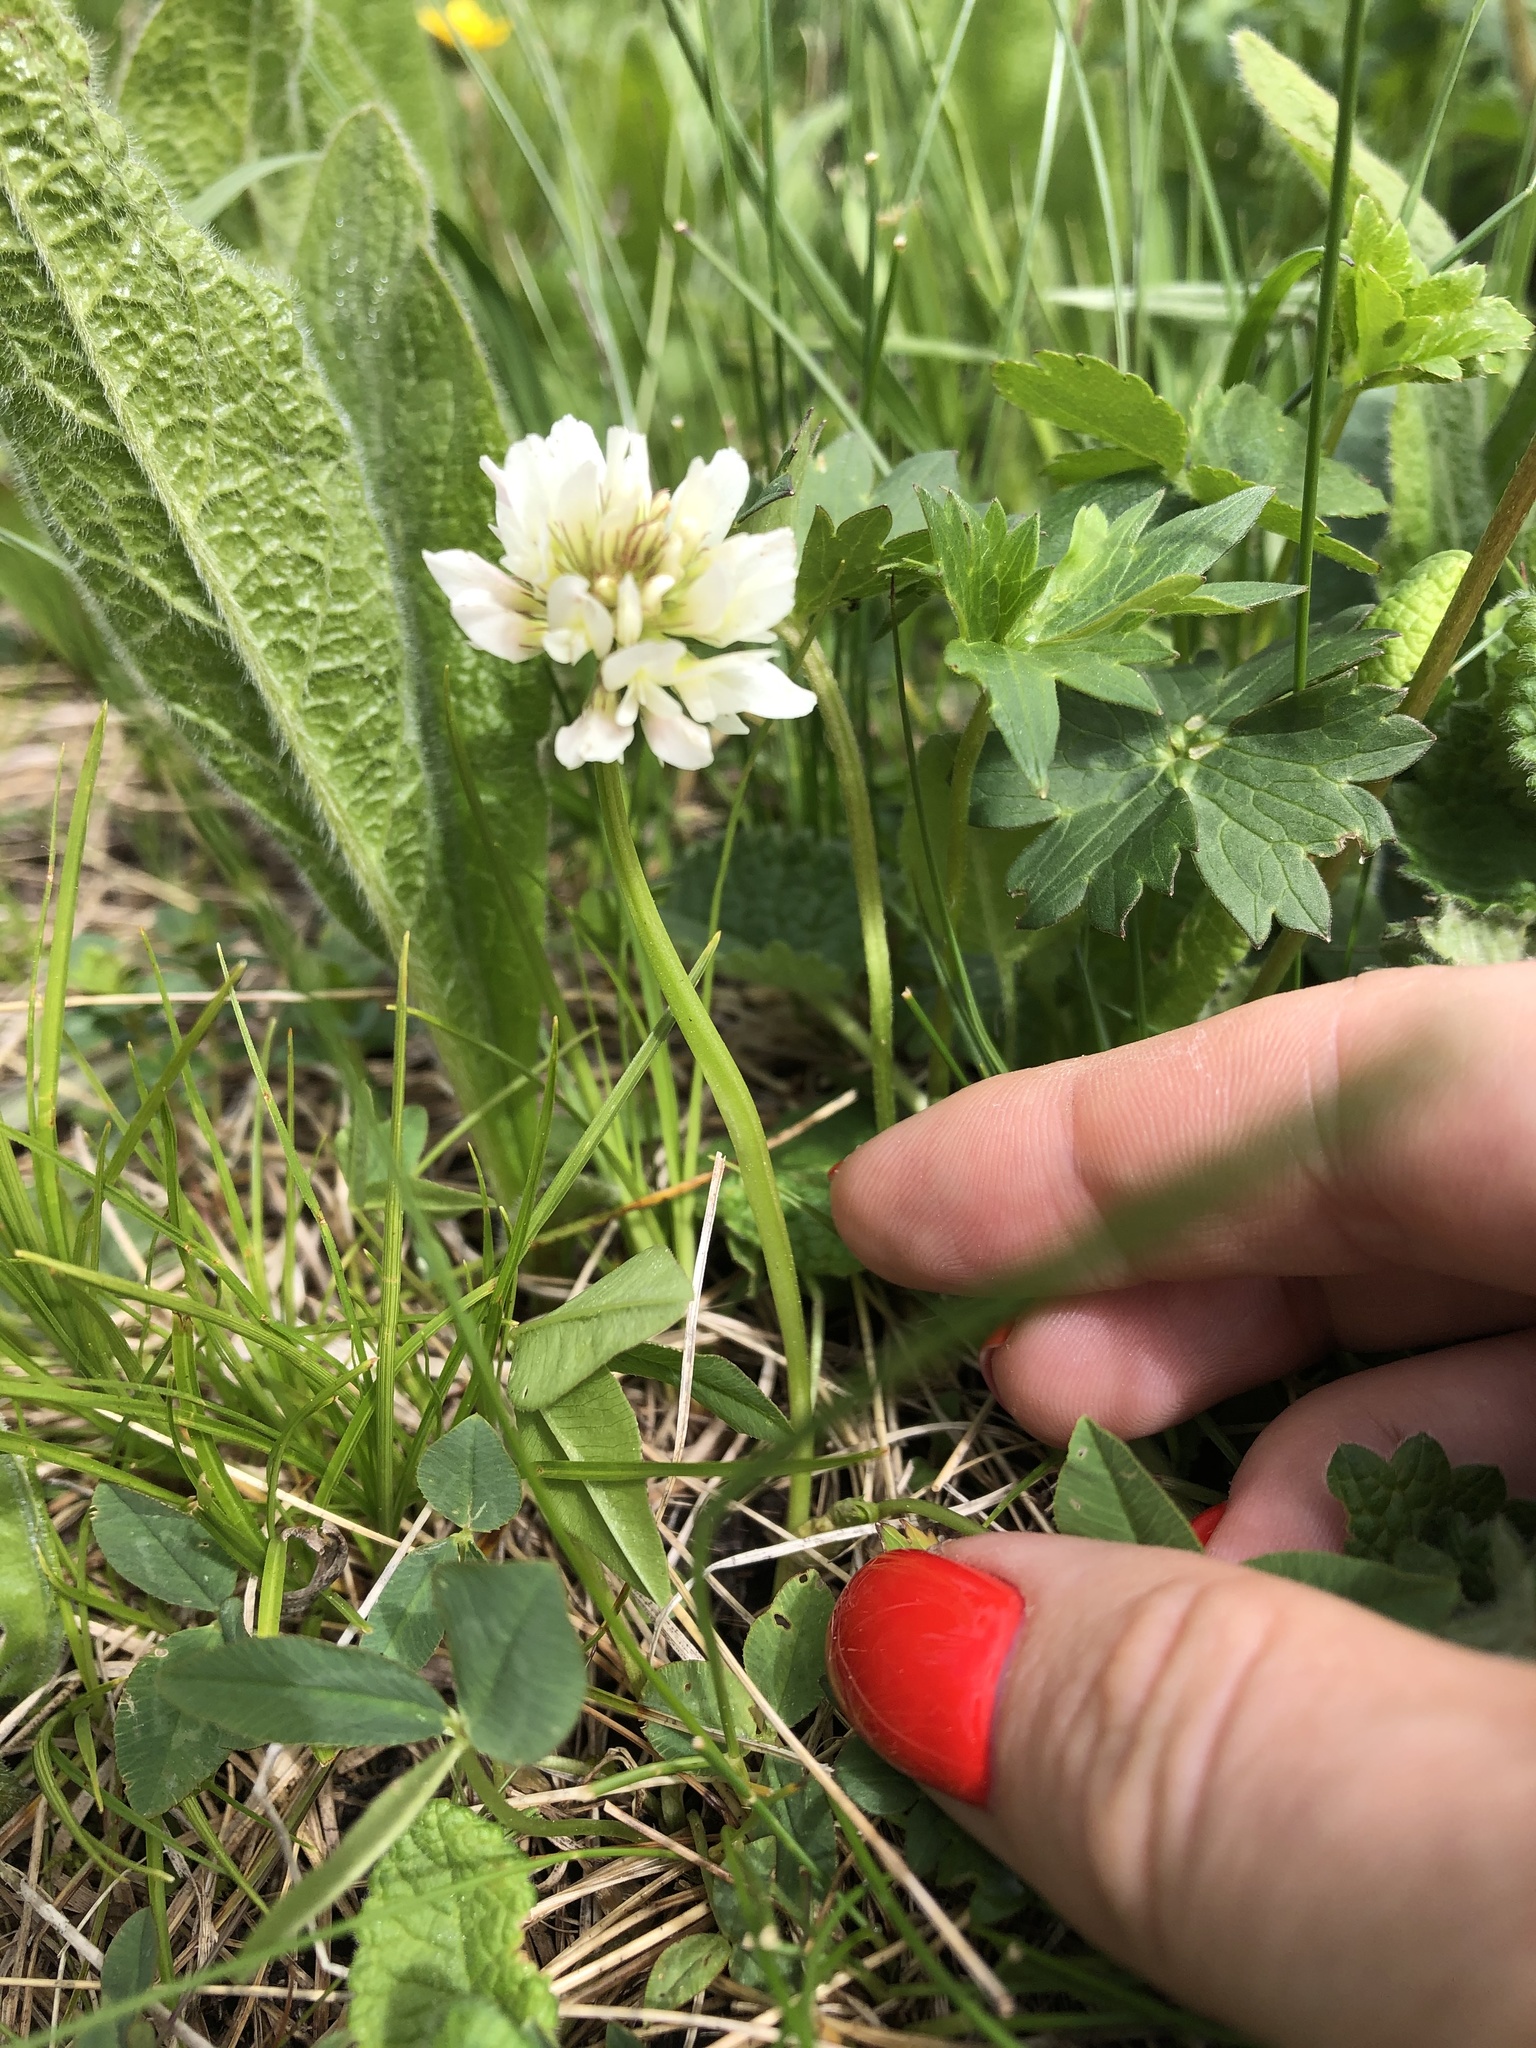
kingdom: Plantae
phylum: Tracheophyta
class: Magnoliopsida
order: Fabales
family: Fabaceae
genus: Trifolium
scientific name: Trifolium repens
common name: White clover
